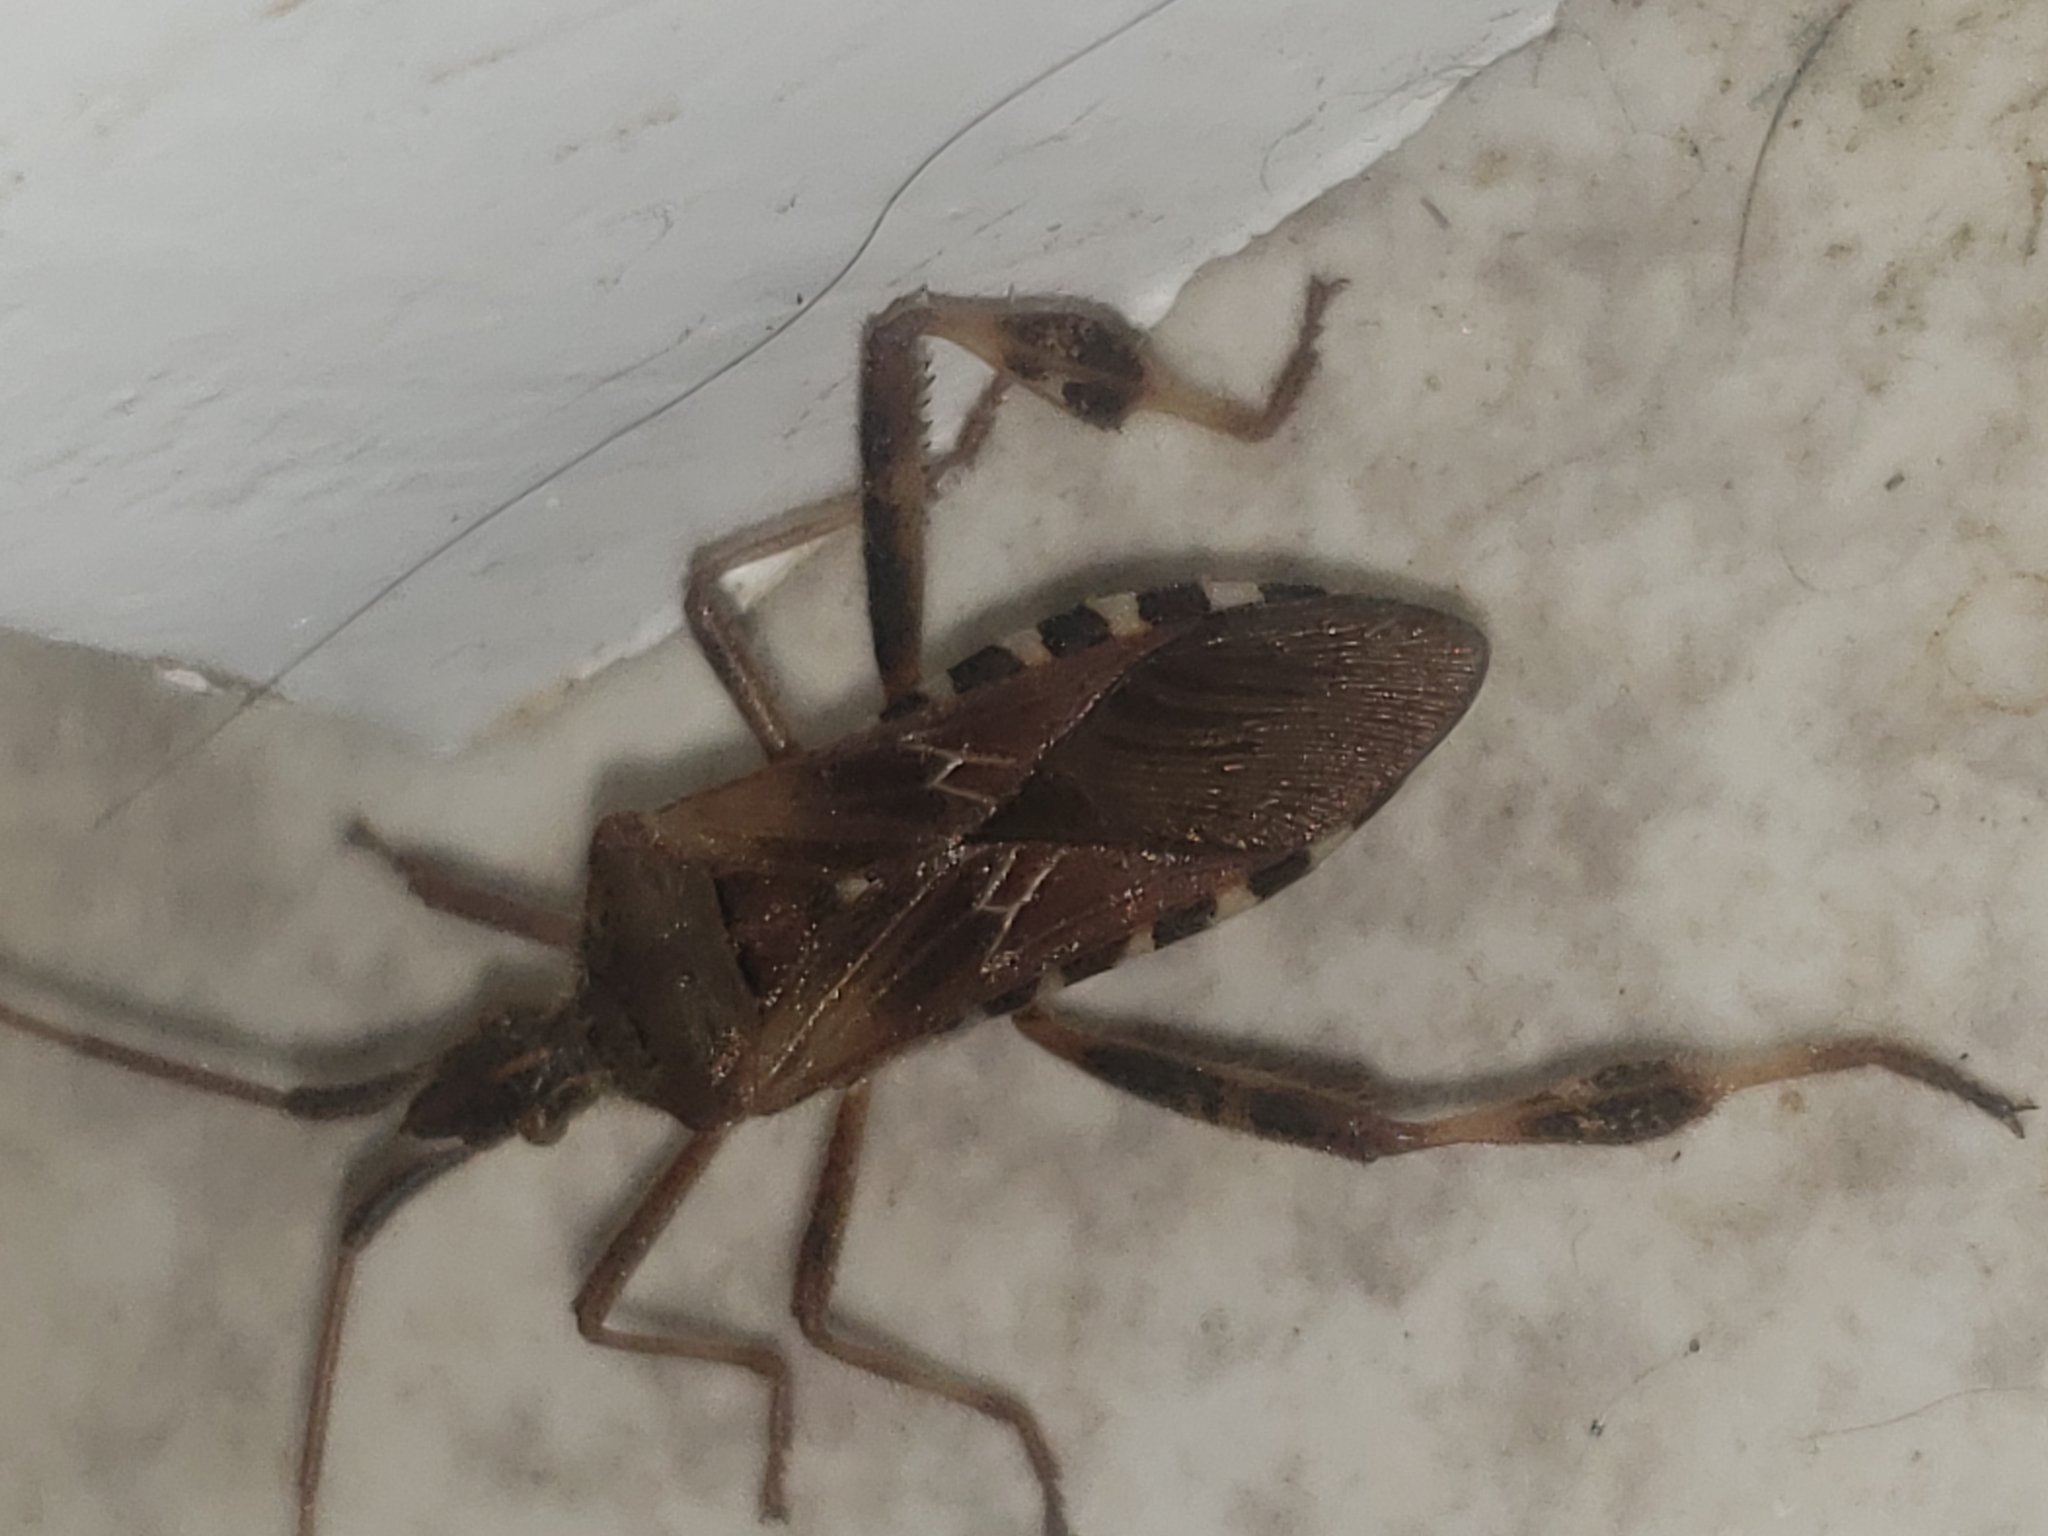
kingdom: Animalia
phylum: Arthropoda
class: Insecta
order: Hemiptera
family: Coreidae
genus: Leptoglossus
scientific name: Leptoglossus occidentalis
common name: Western conifer-seed bug
